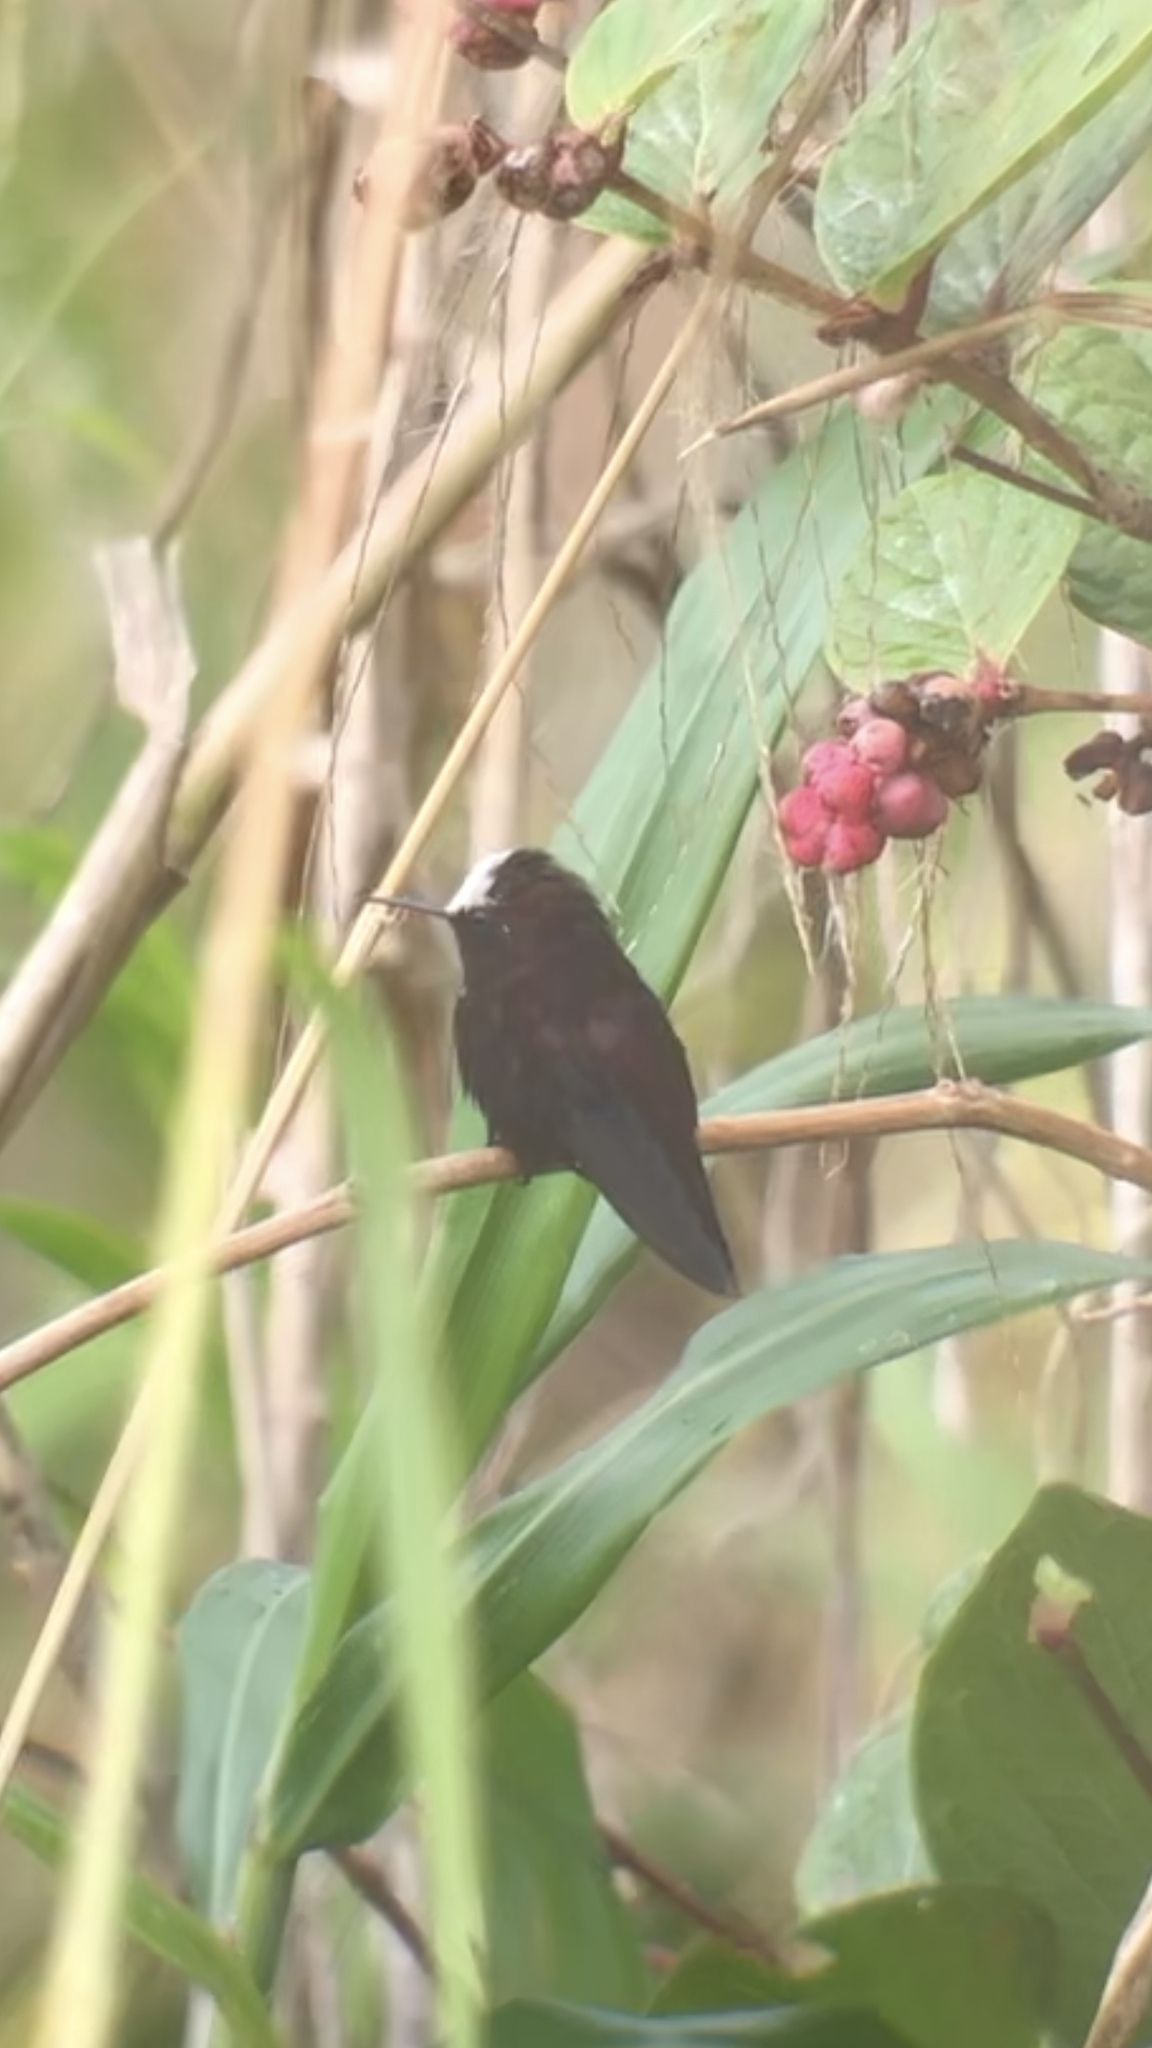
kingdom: Animalia
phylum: Chordata
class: Aves
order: Apodiformes
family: Trochilidae
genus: Microchera
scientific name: Microchera albocoronata
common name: Snowcap
